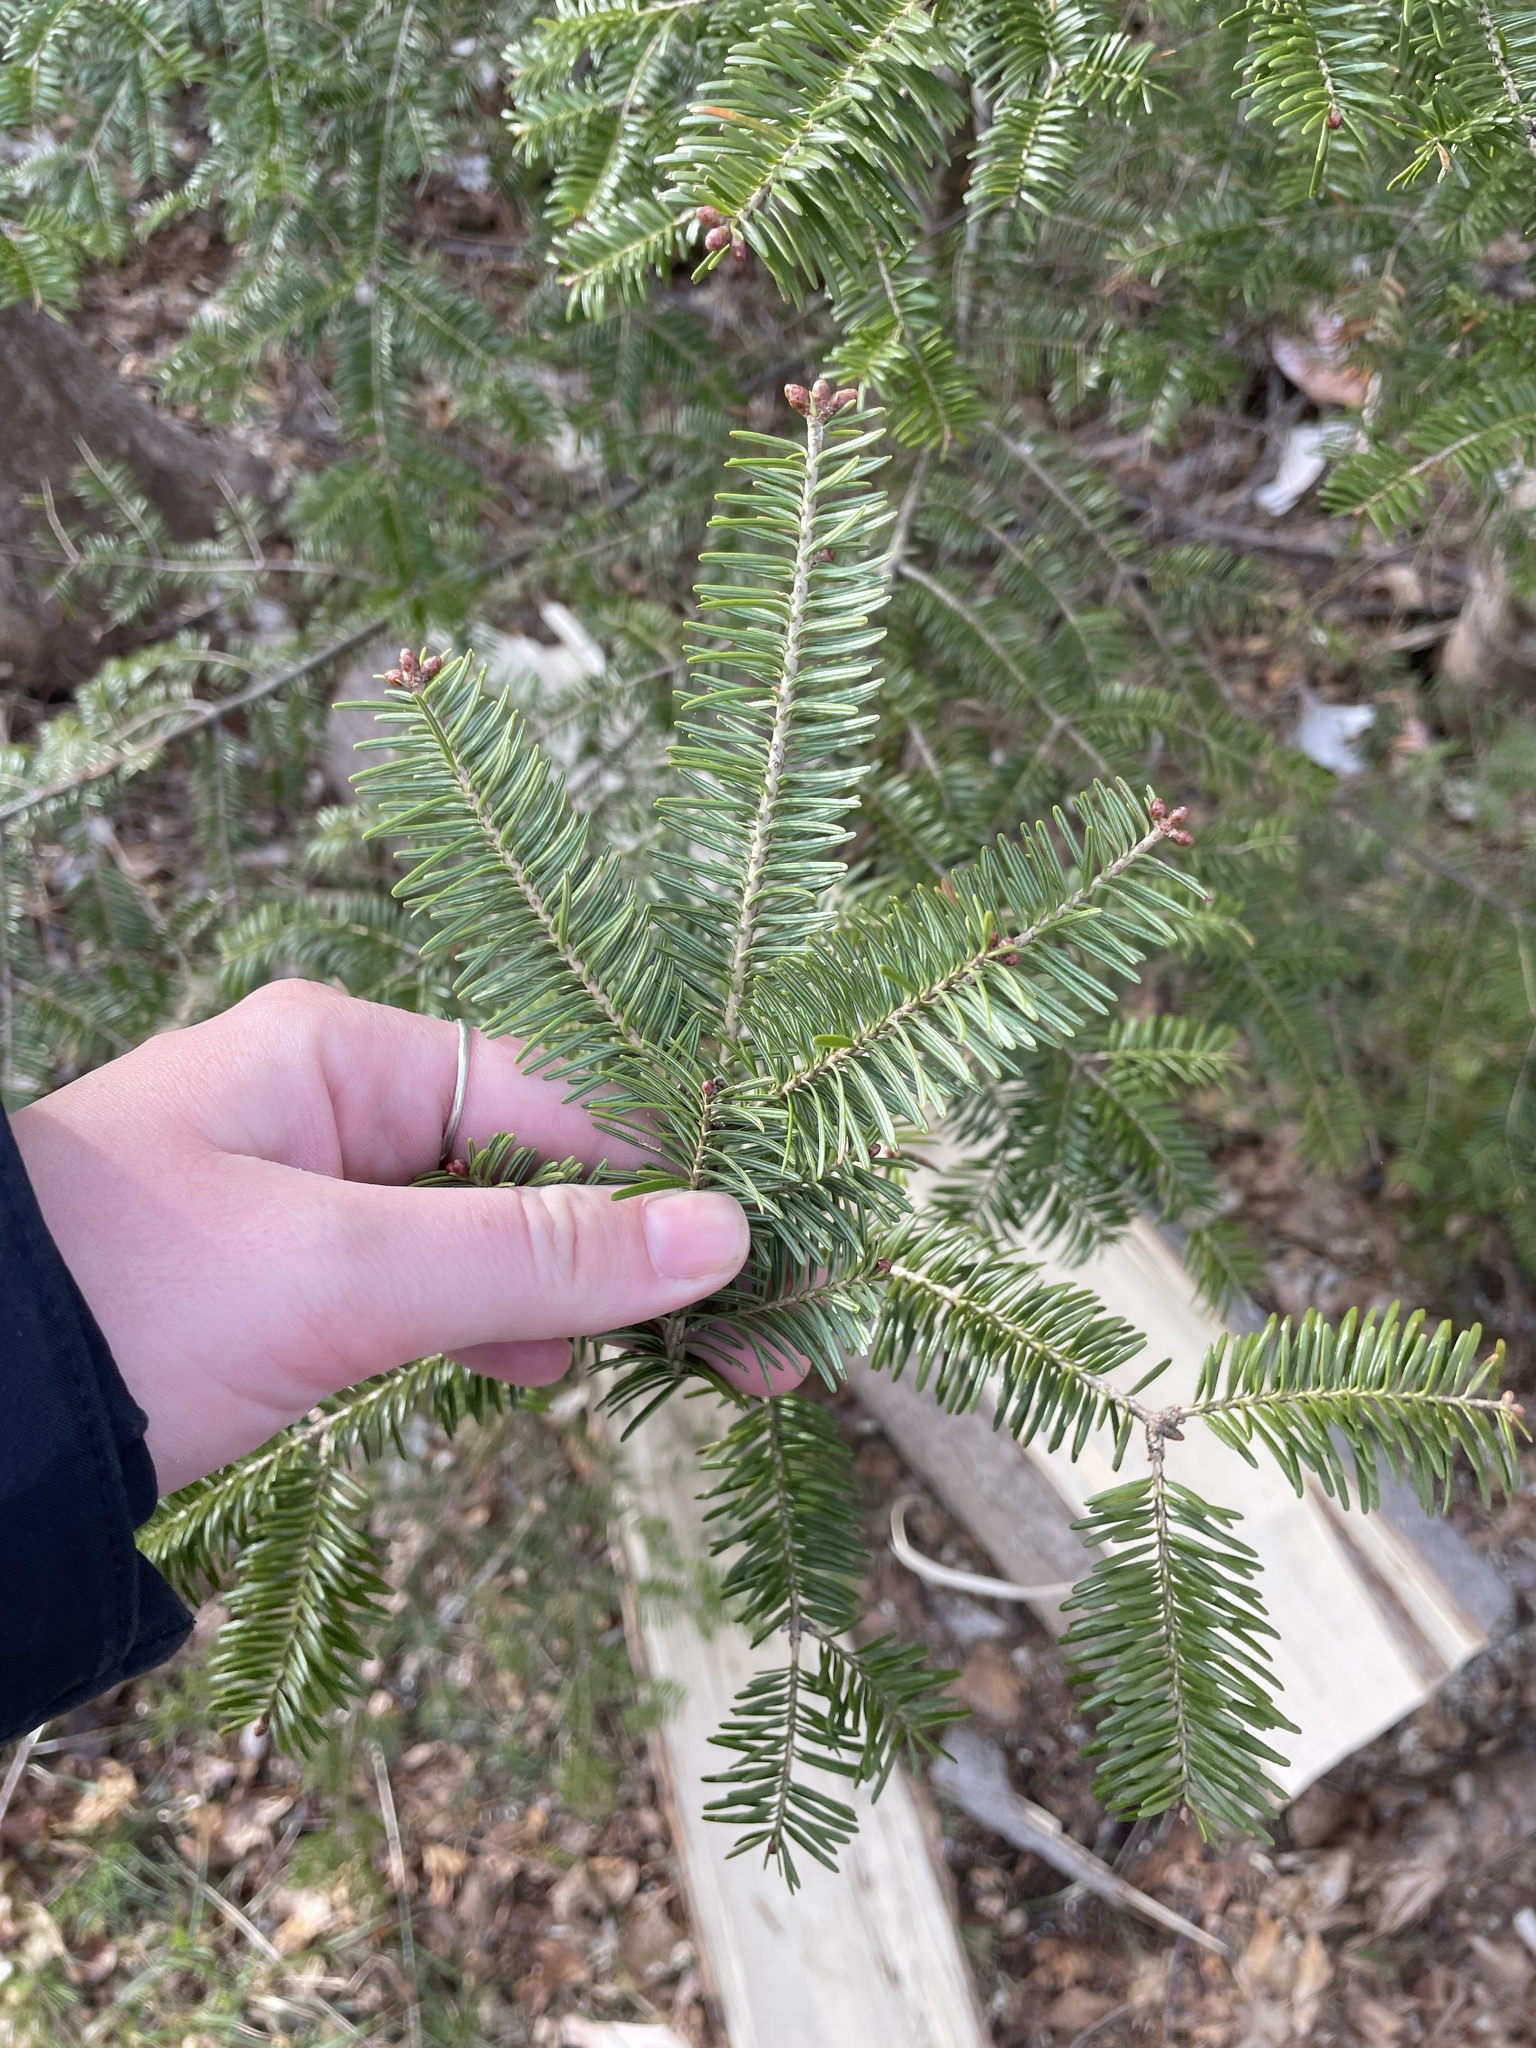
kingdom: Plantae
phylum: Tracheophyta
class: Pinopsida
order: Pinales
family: Pinaceae
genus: Abies
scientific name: Abies balsamea
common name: Balsam fir
